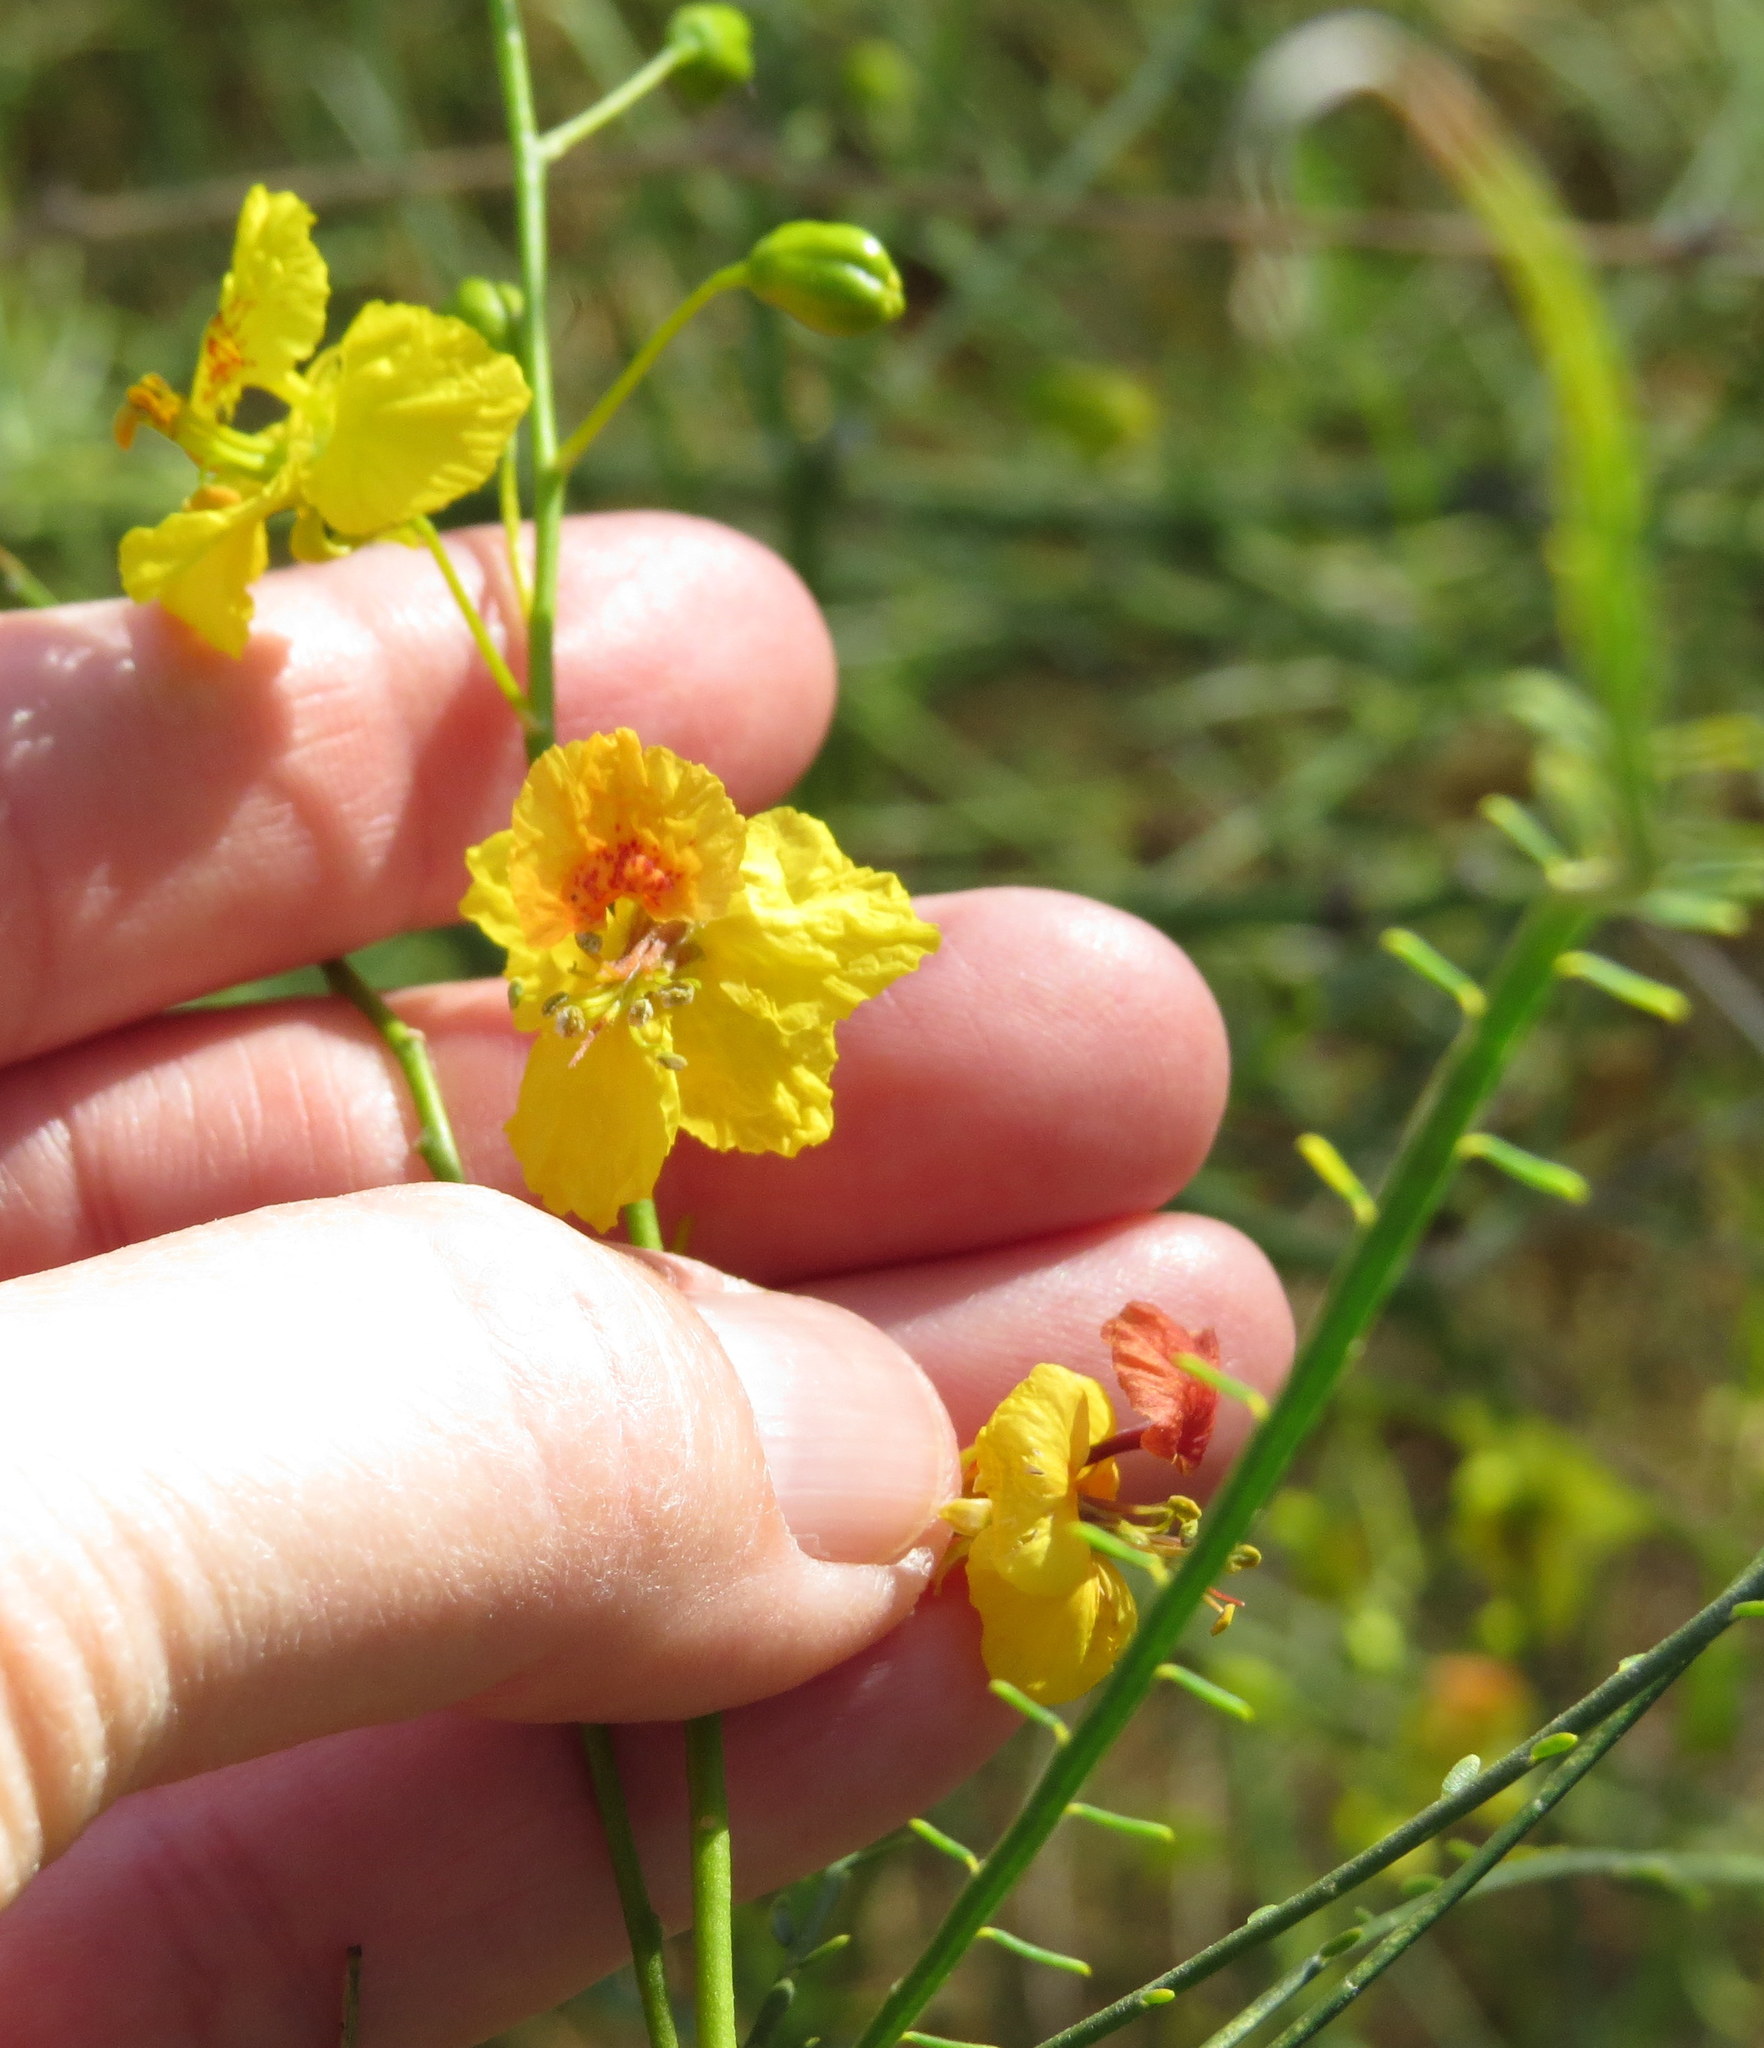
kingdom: Plantae
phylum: Tracheophyta
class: Magnoliopsida
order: Fabales
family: Fabaceae
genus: Parkinsonia
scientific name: Parkinsonia aculeata
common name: Jerusalem thorn
